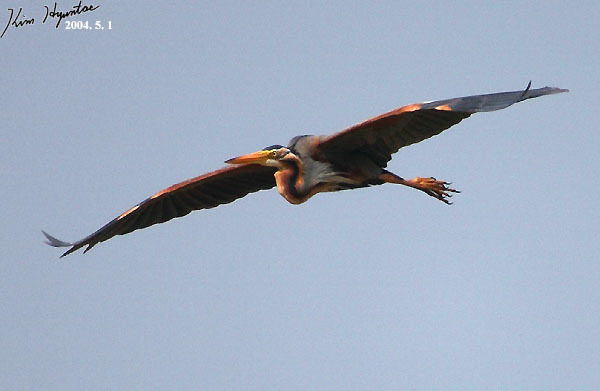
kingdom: Animalia
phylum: Chordata
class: Aves
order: Pelecaniformes
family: Ardeidae
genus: Ardea
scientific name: Ardea purpurea
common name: Purple heron
